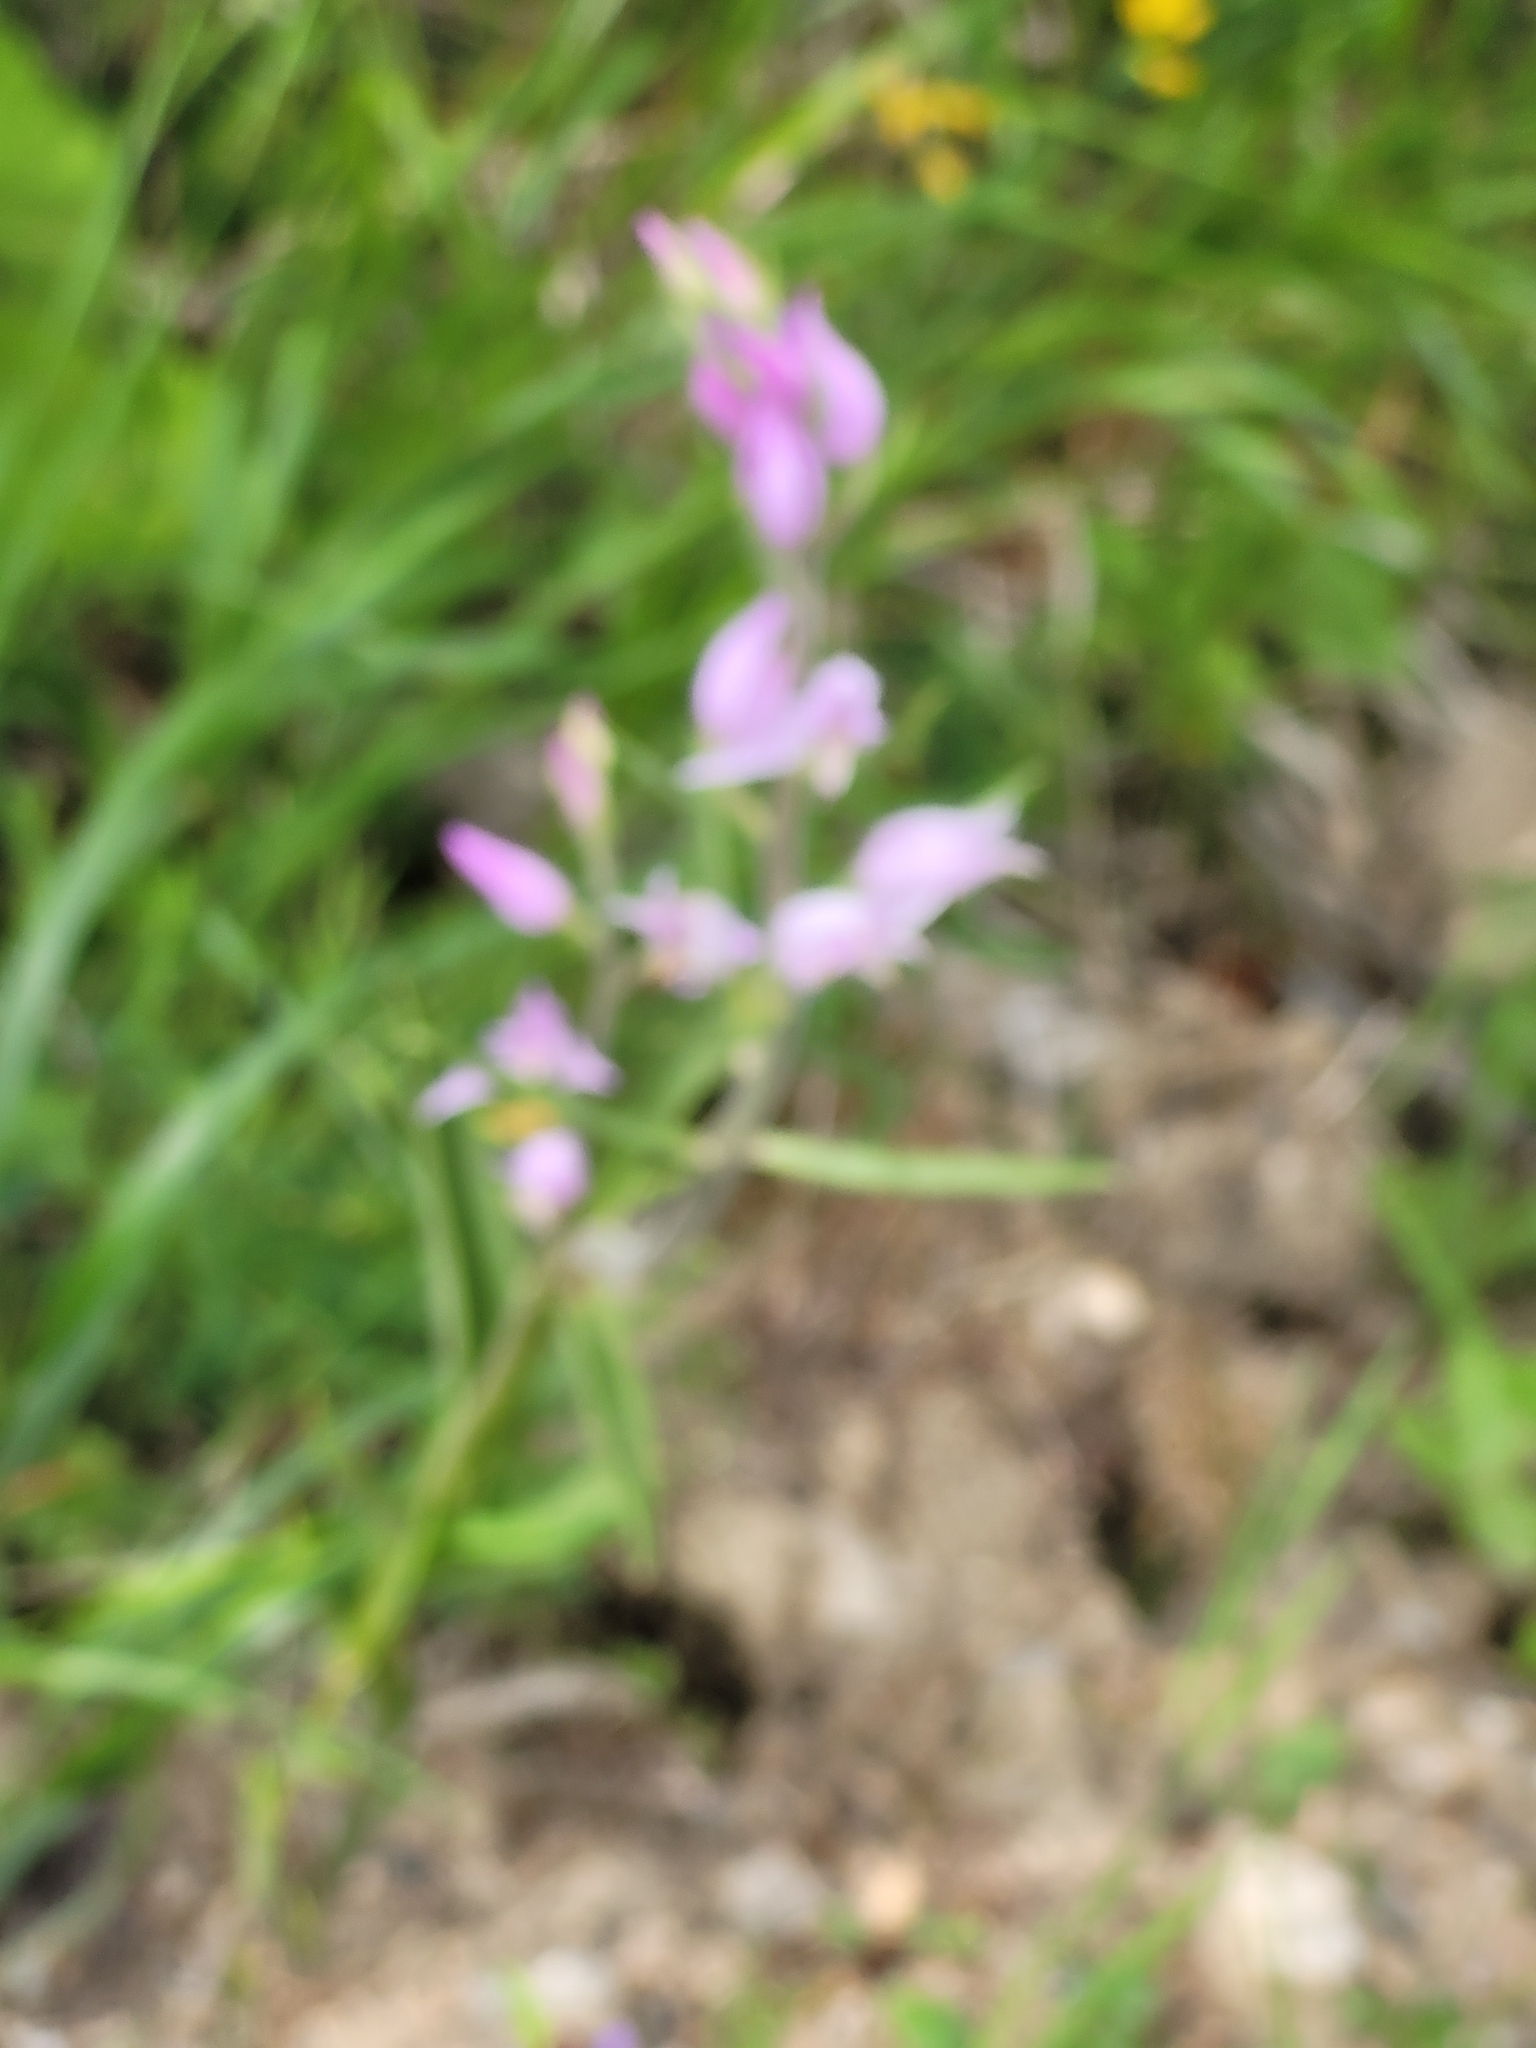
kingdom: Plantae
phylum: Tracheophyta
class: Liliopsida
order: Asparagales
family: Orchidaceae
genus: Cephalanthera
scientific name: Cephalanthera rubra
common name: Red helleborine
